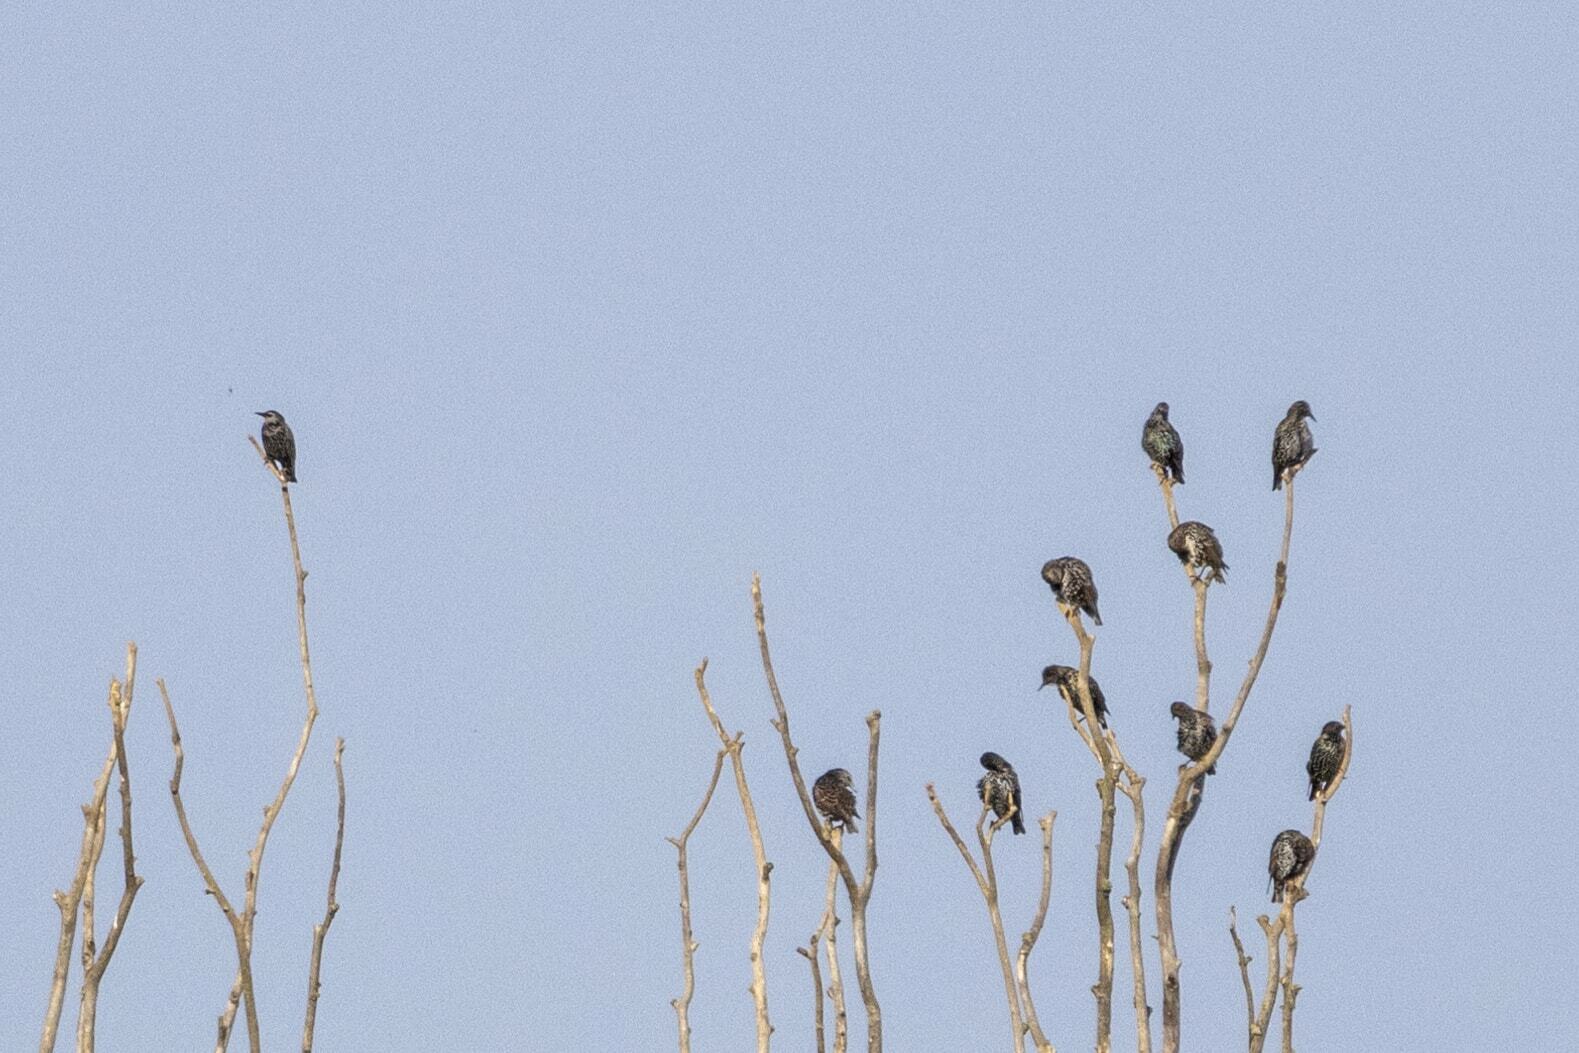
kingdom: Animalia
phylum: Chordata
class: Aves
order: Passeriformes
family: Sturnidae
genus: Sturnus
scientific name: Sturnus vulgaris
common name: Common starling
